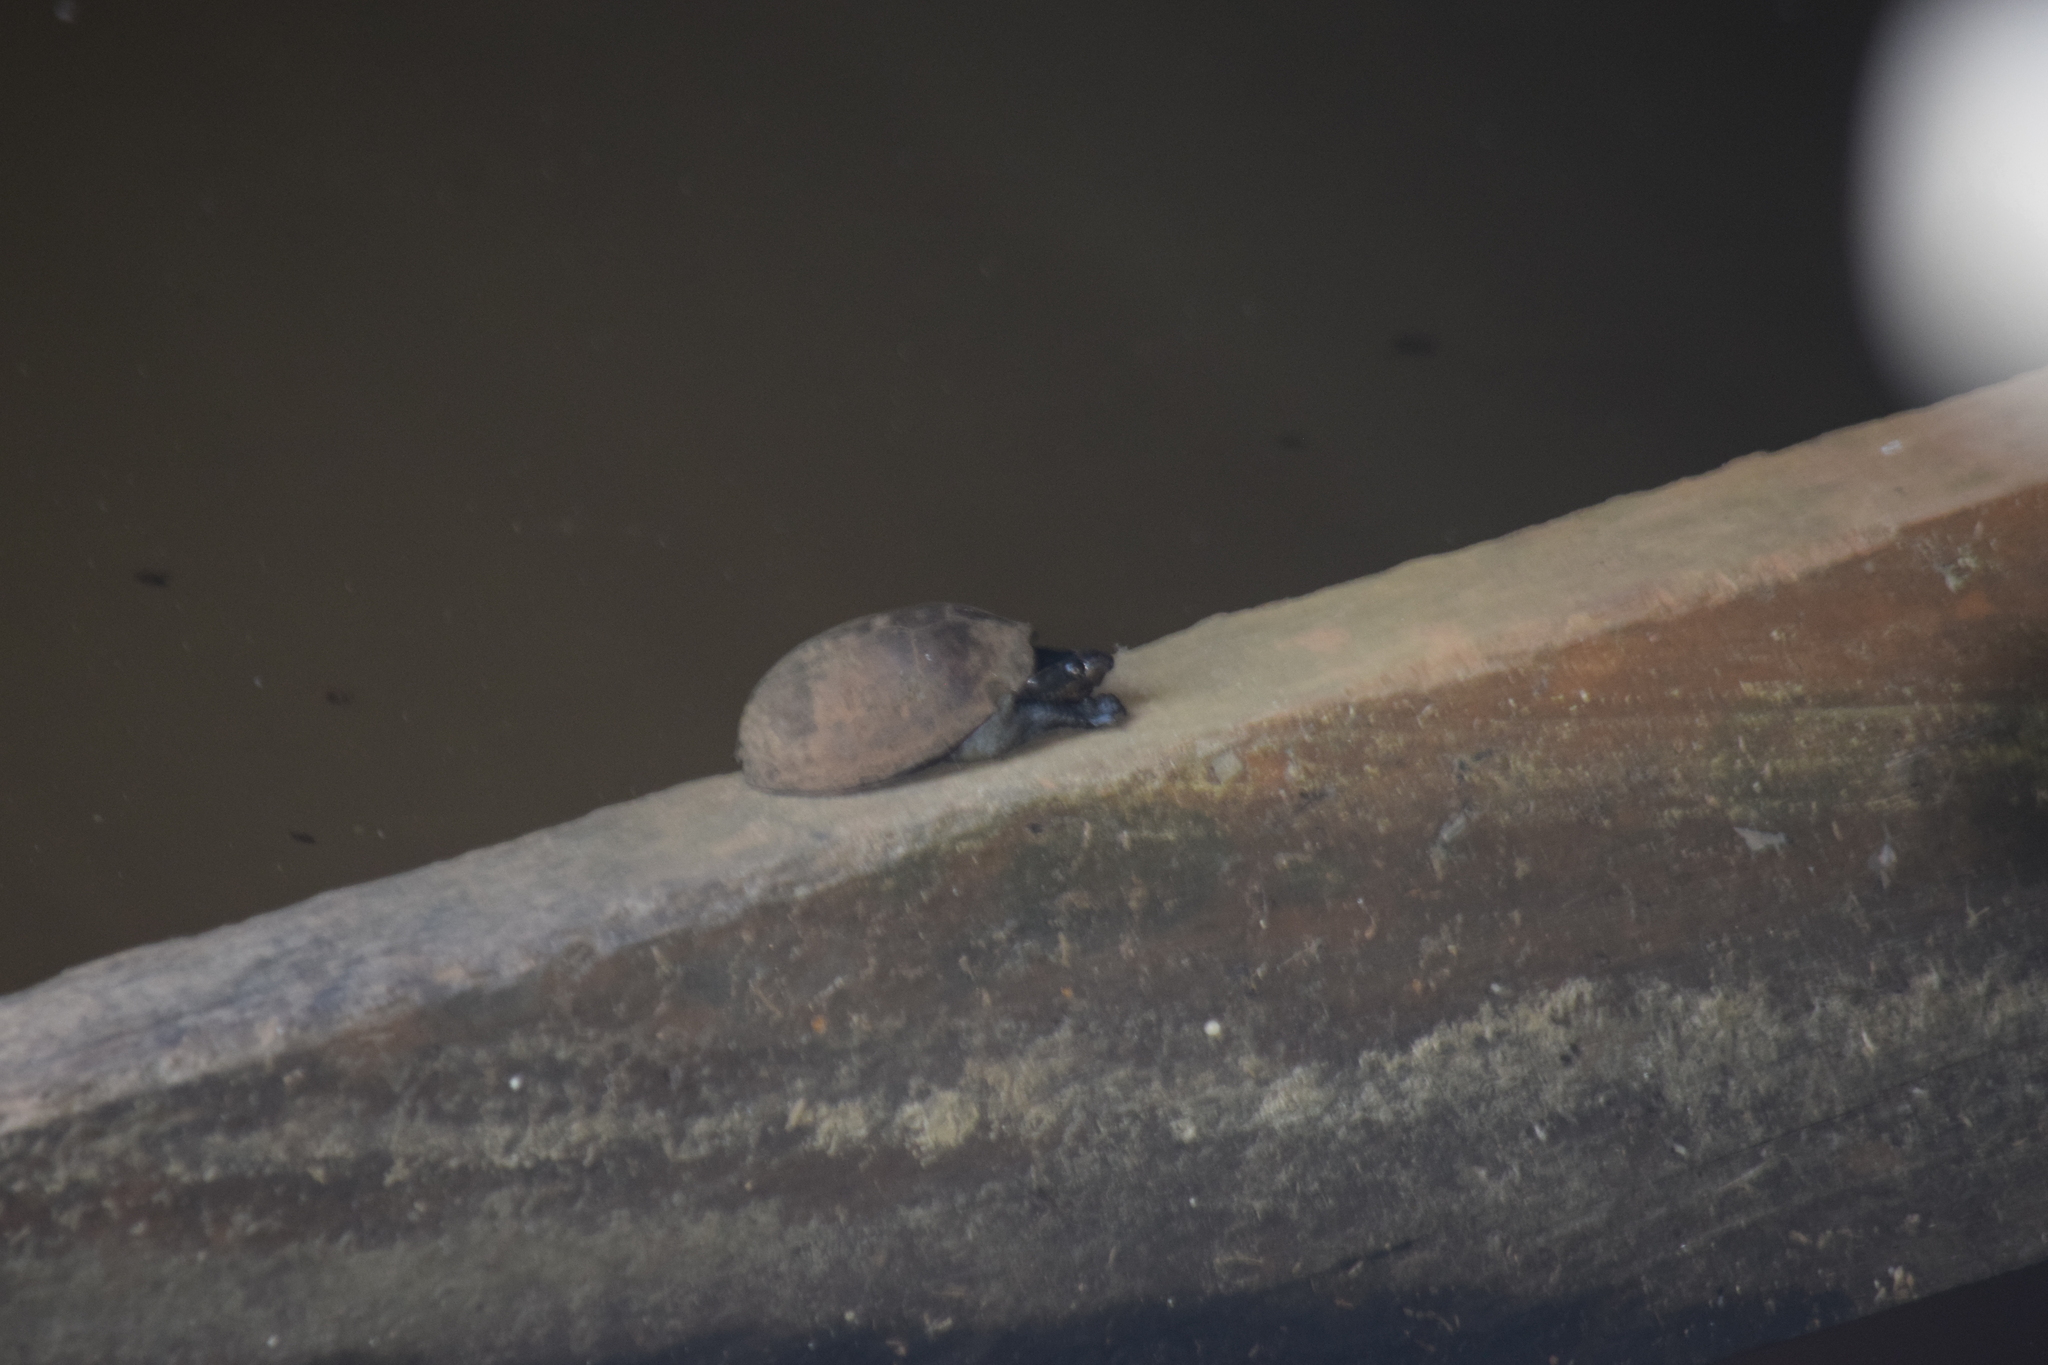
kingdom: Animalia
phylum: Chordata
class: Testudines
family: Kinosternidae
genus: Sternotherus
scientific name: Sternotherus odoratus
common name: Common musk turtle
